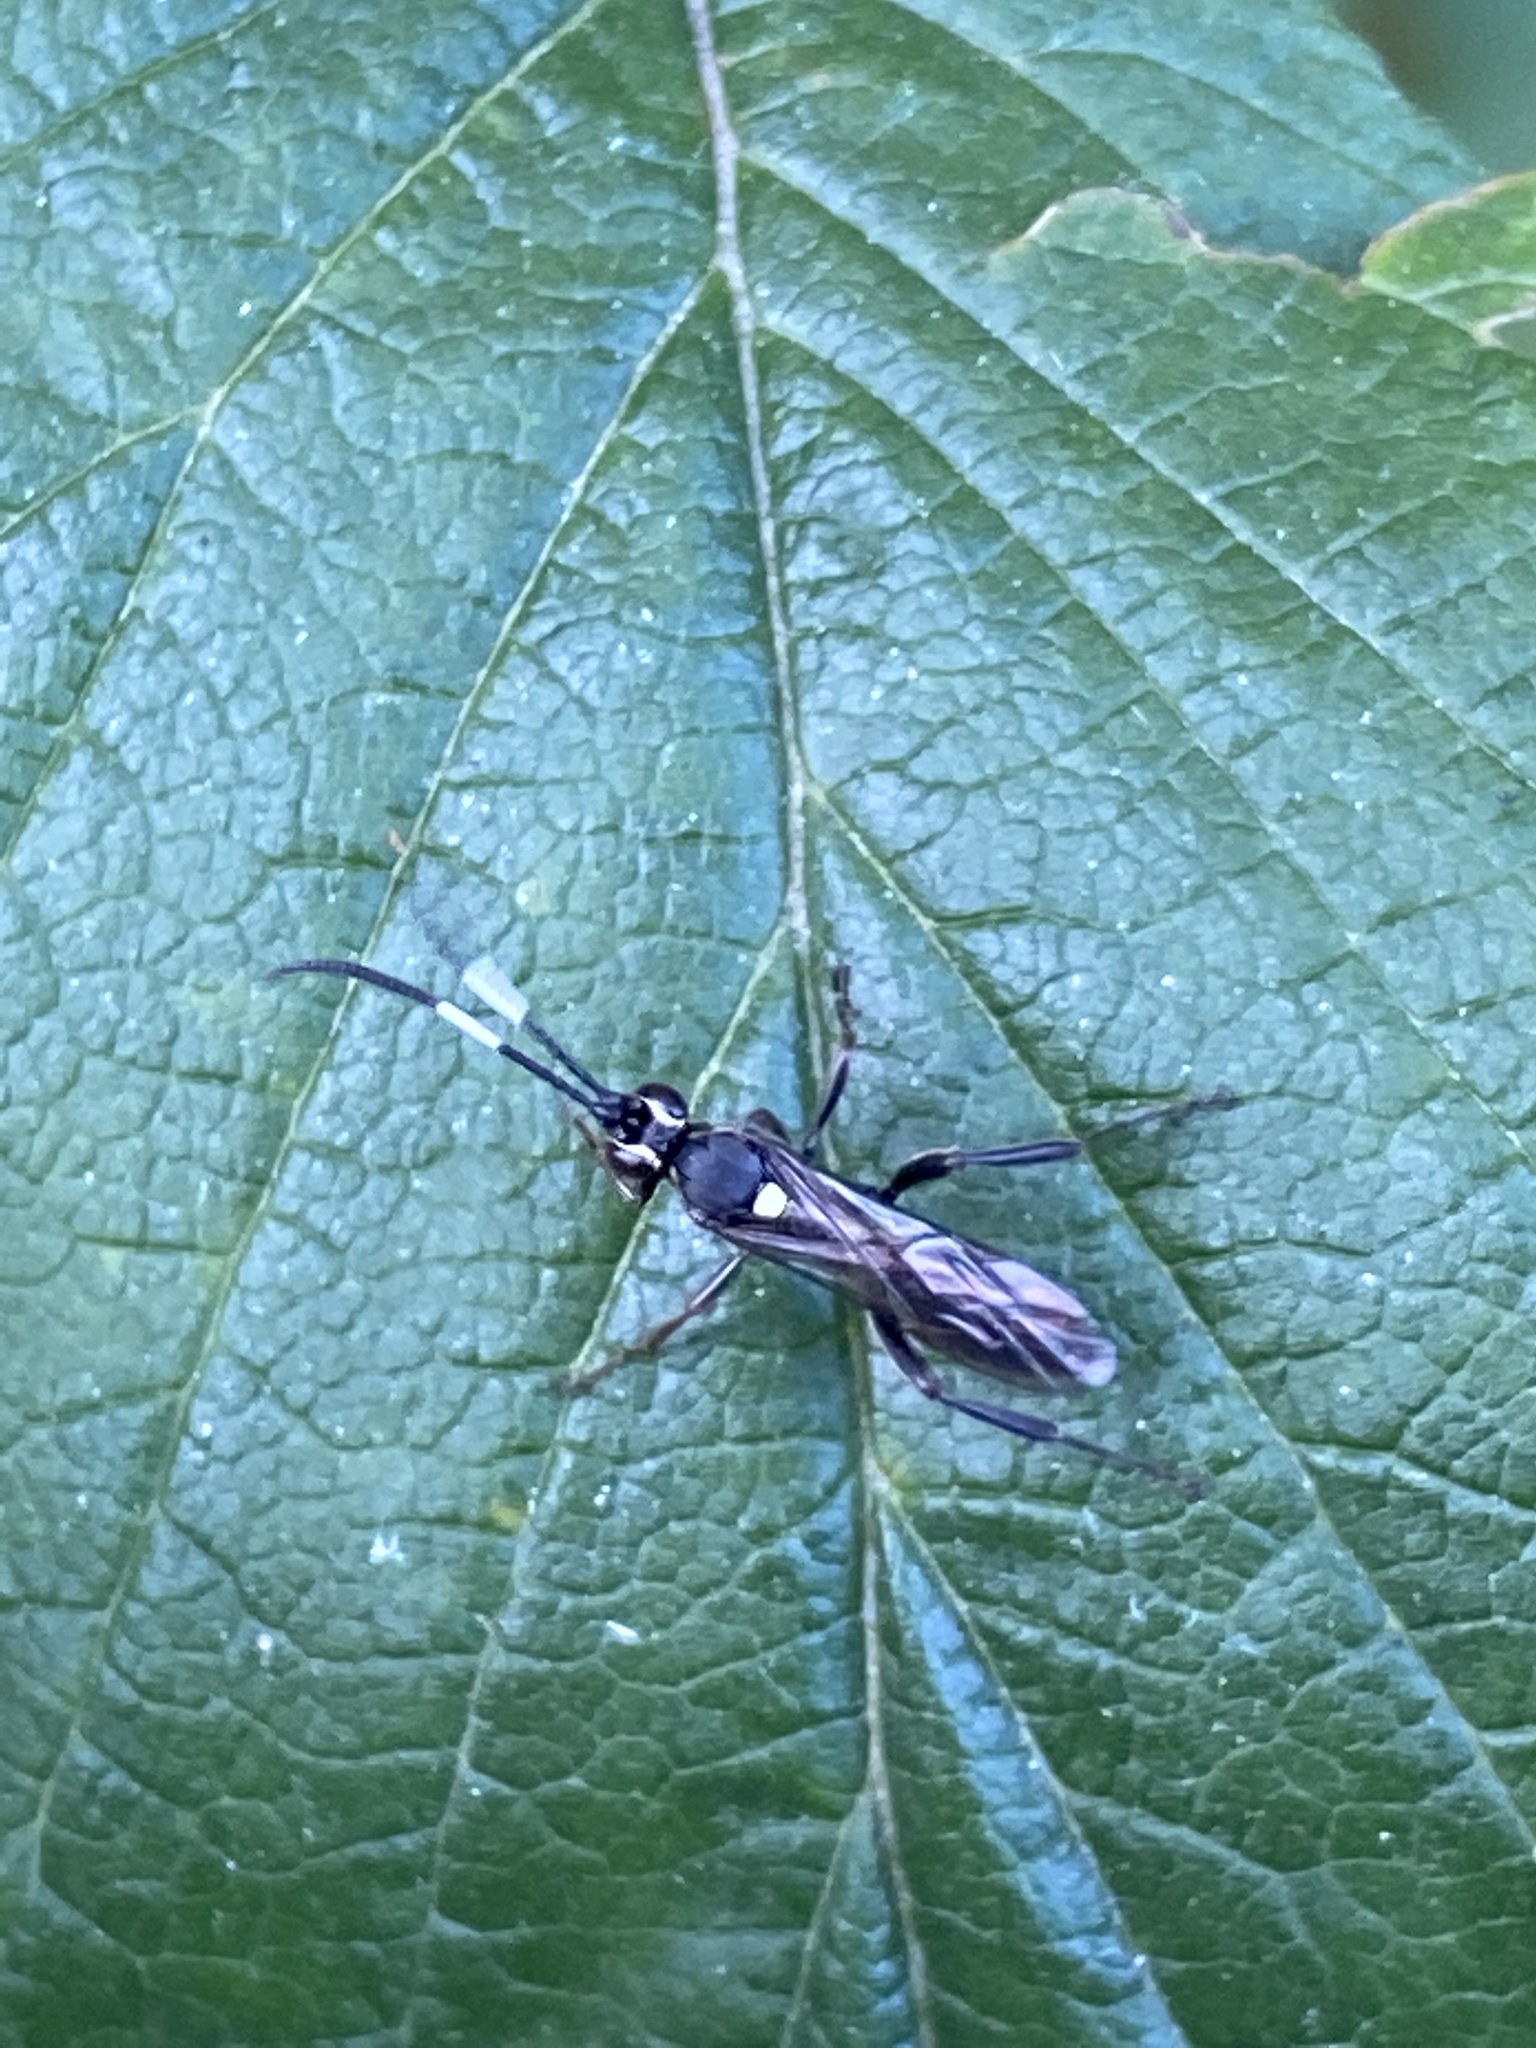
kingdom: Animalia
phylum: Arthropoda
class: Insecta
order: Hymenoptera
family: Ichneumonidae
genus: Cratichneumon
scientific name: Cratichneumon sicarius
